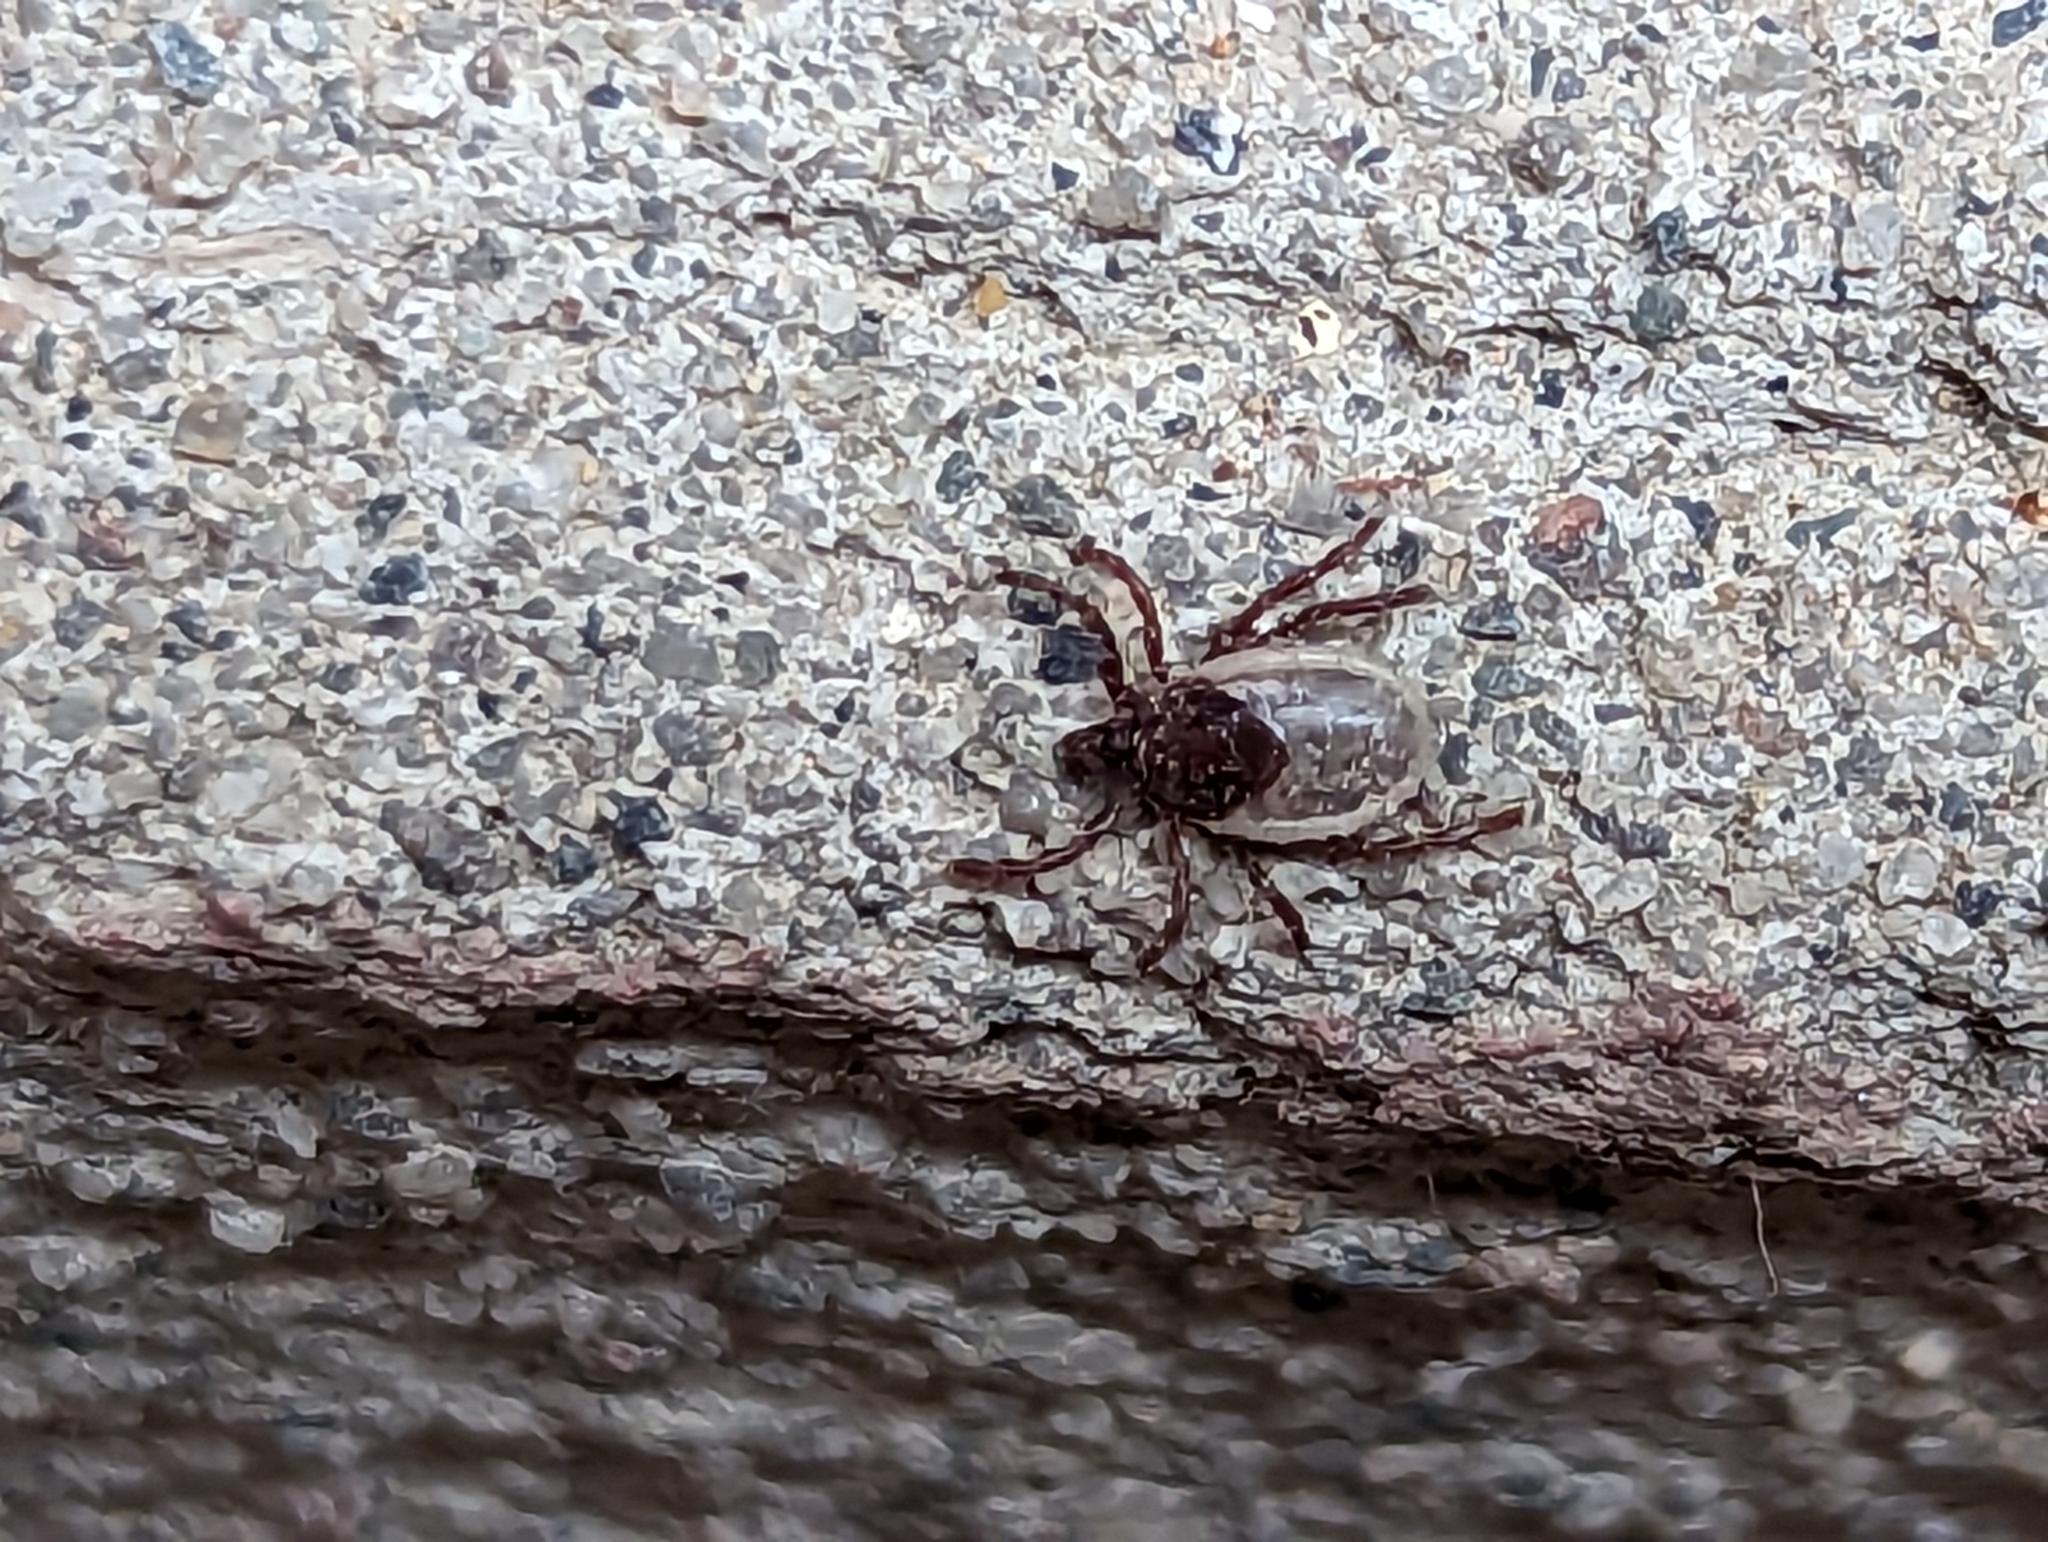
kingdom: Animalia
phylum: Arthropoda
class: Arachnida
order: Ixodida
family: Ixodidae
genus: Ixodes
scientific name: Ixodes cookei
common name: American castor bean tick
